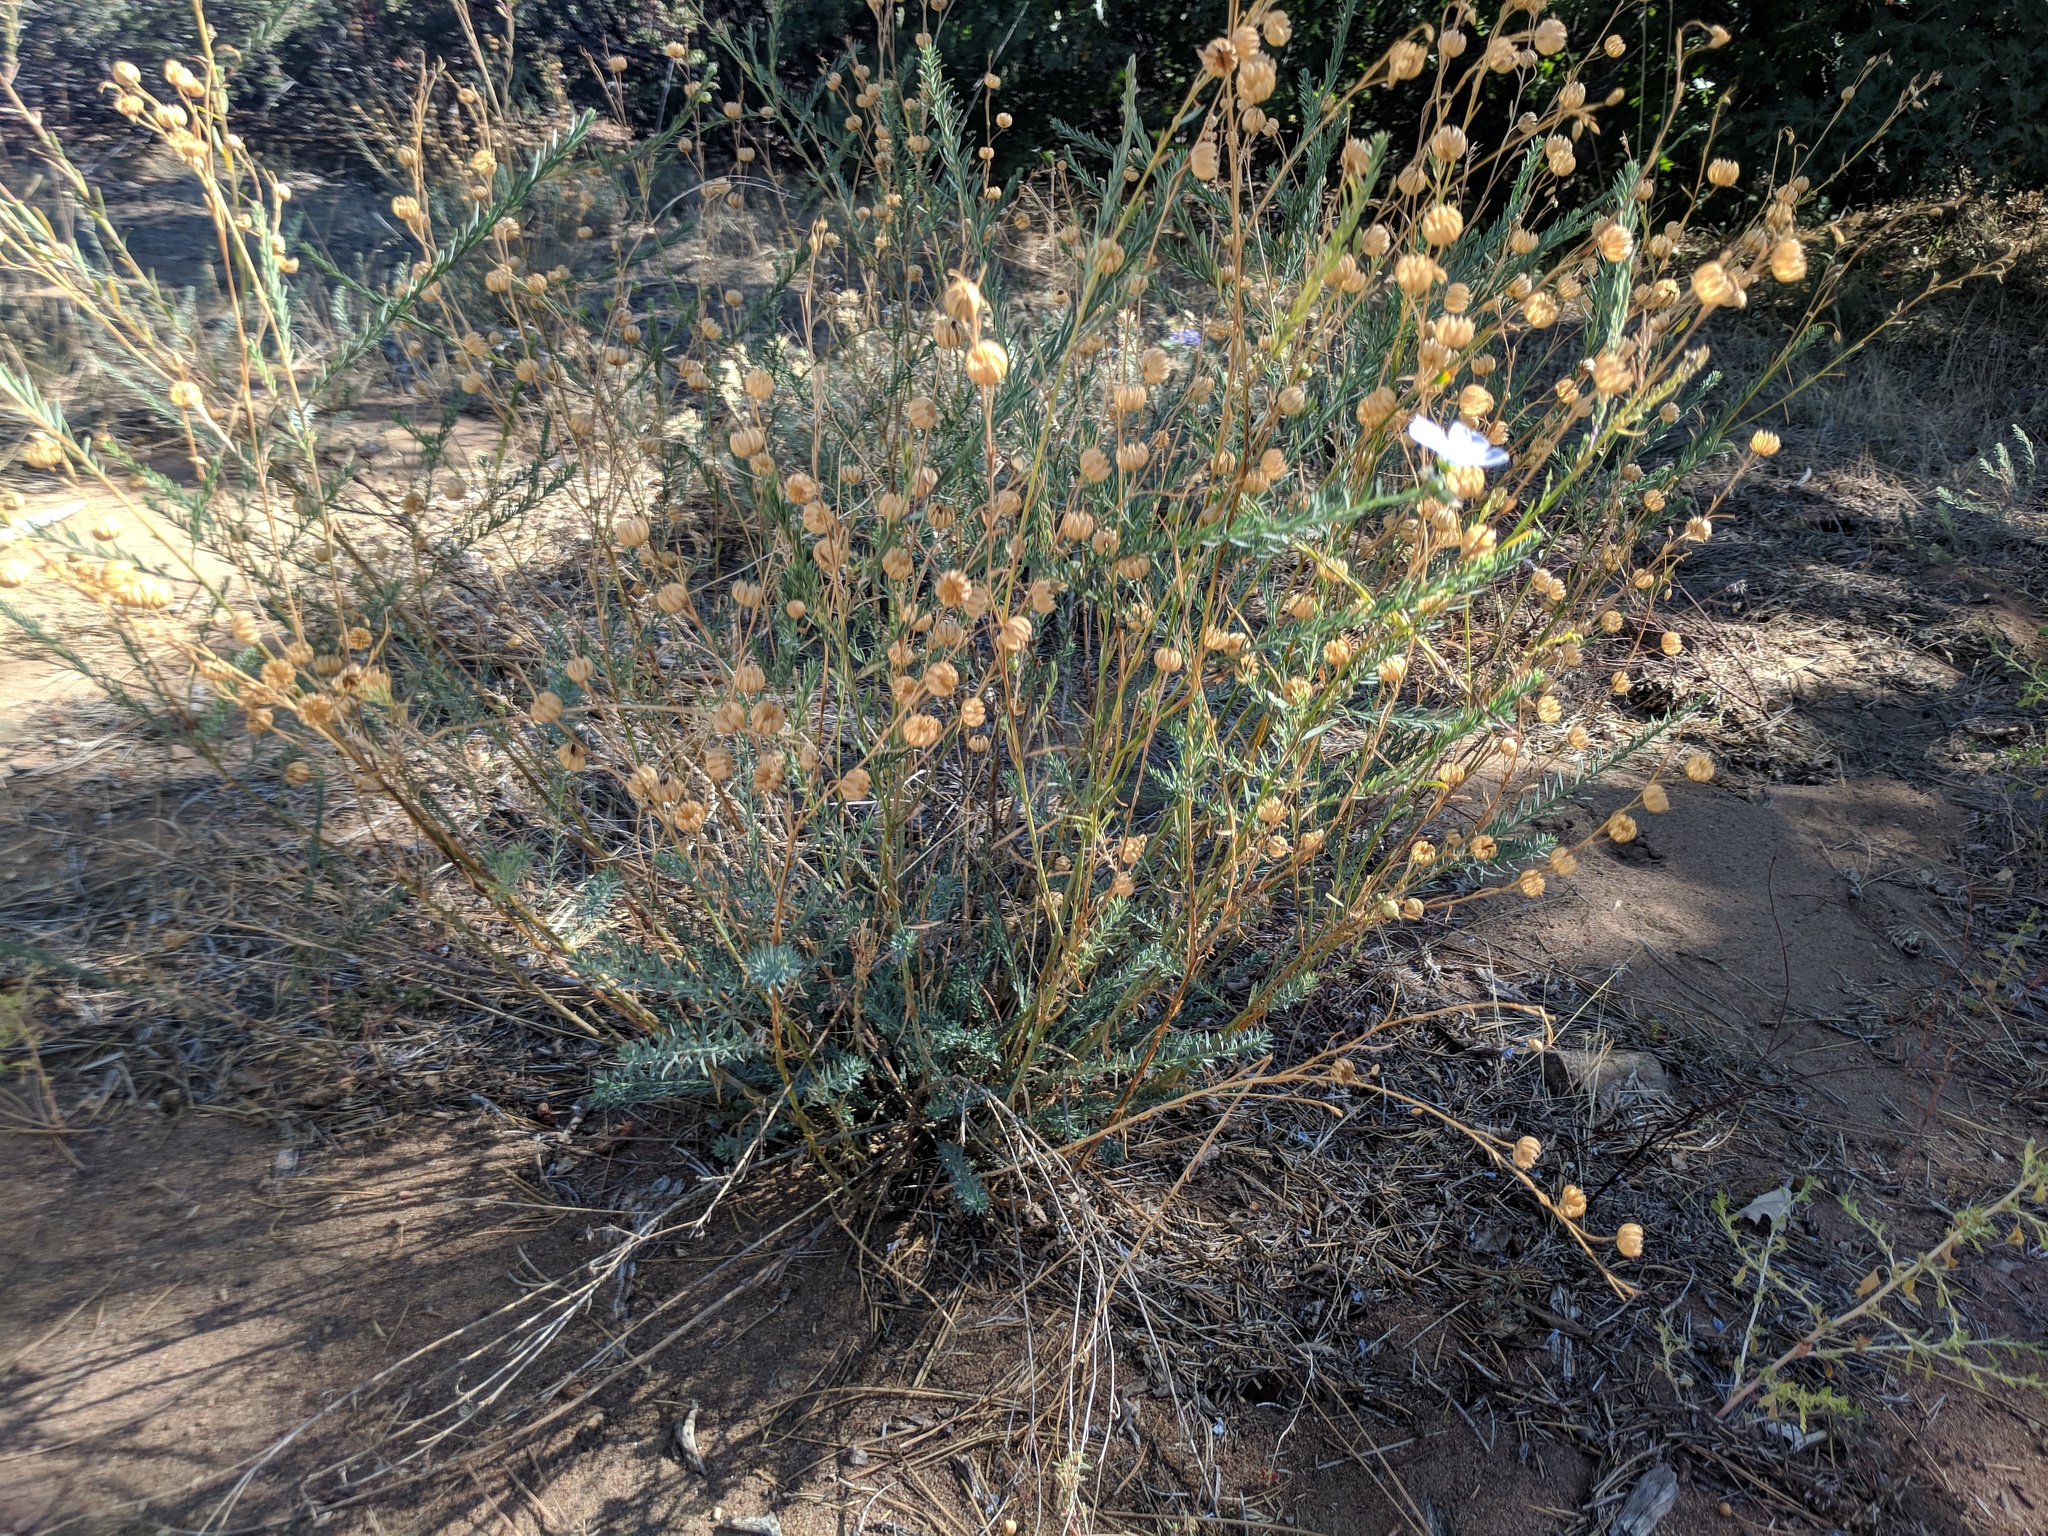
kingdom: Plantae
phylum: Tracheophyta
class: Magnoliopsida
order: Malpighiales
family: Linaceae
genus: Linum
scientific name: Linum lewisii
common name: Prairie flax
